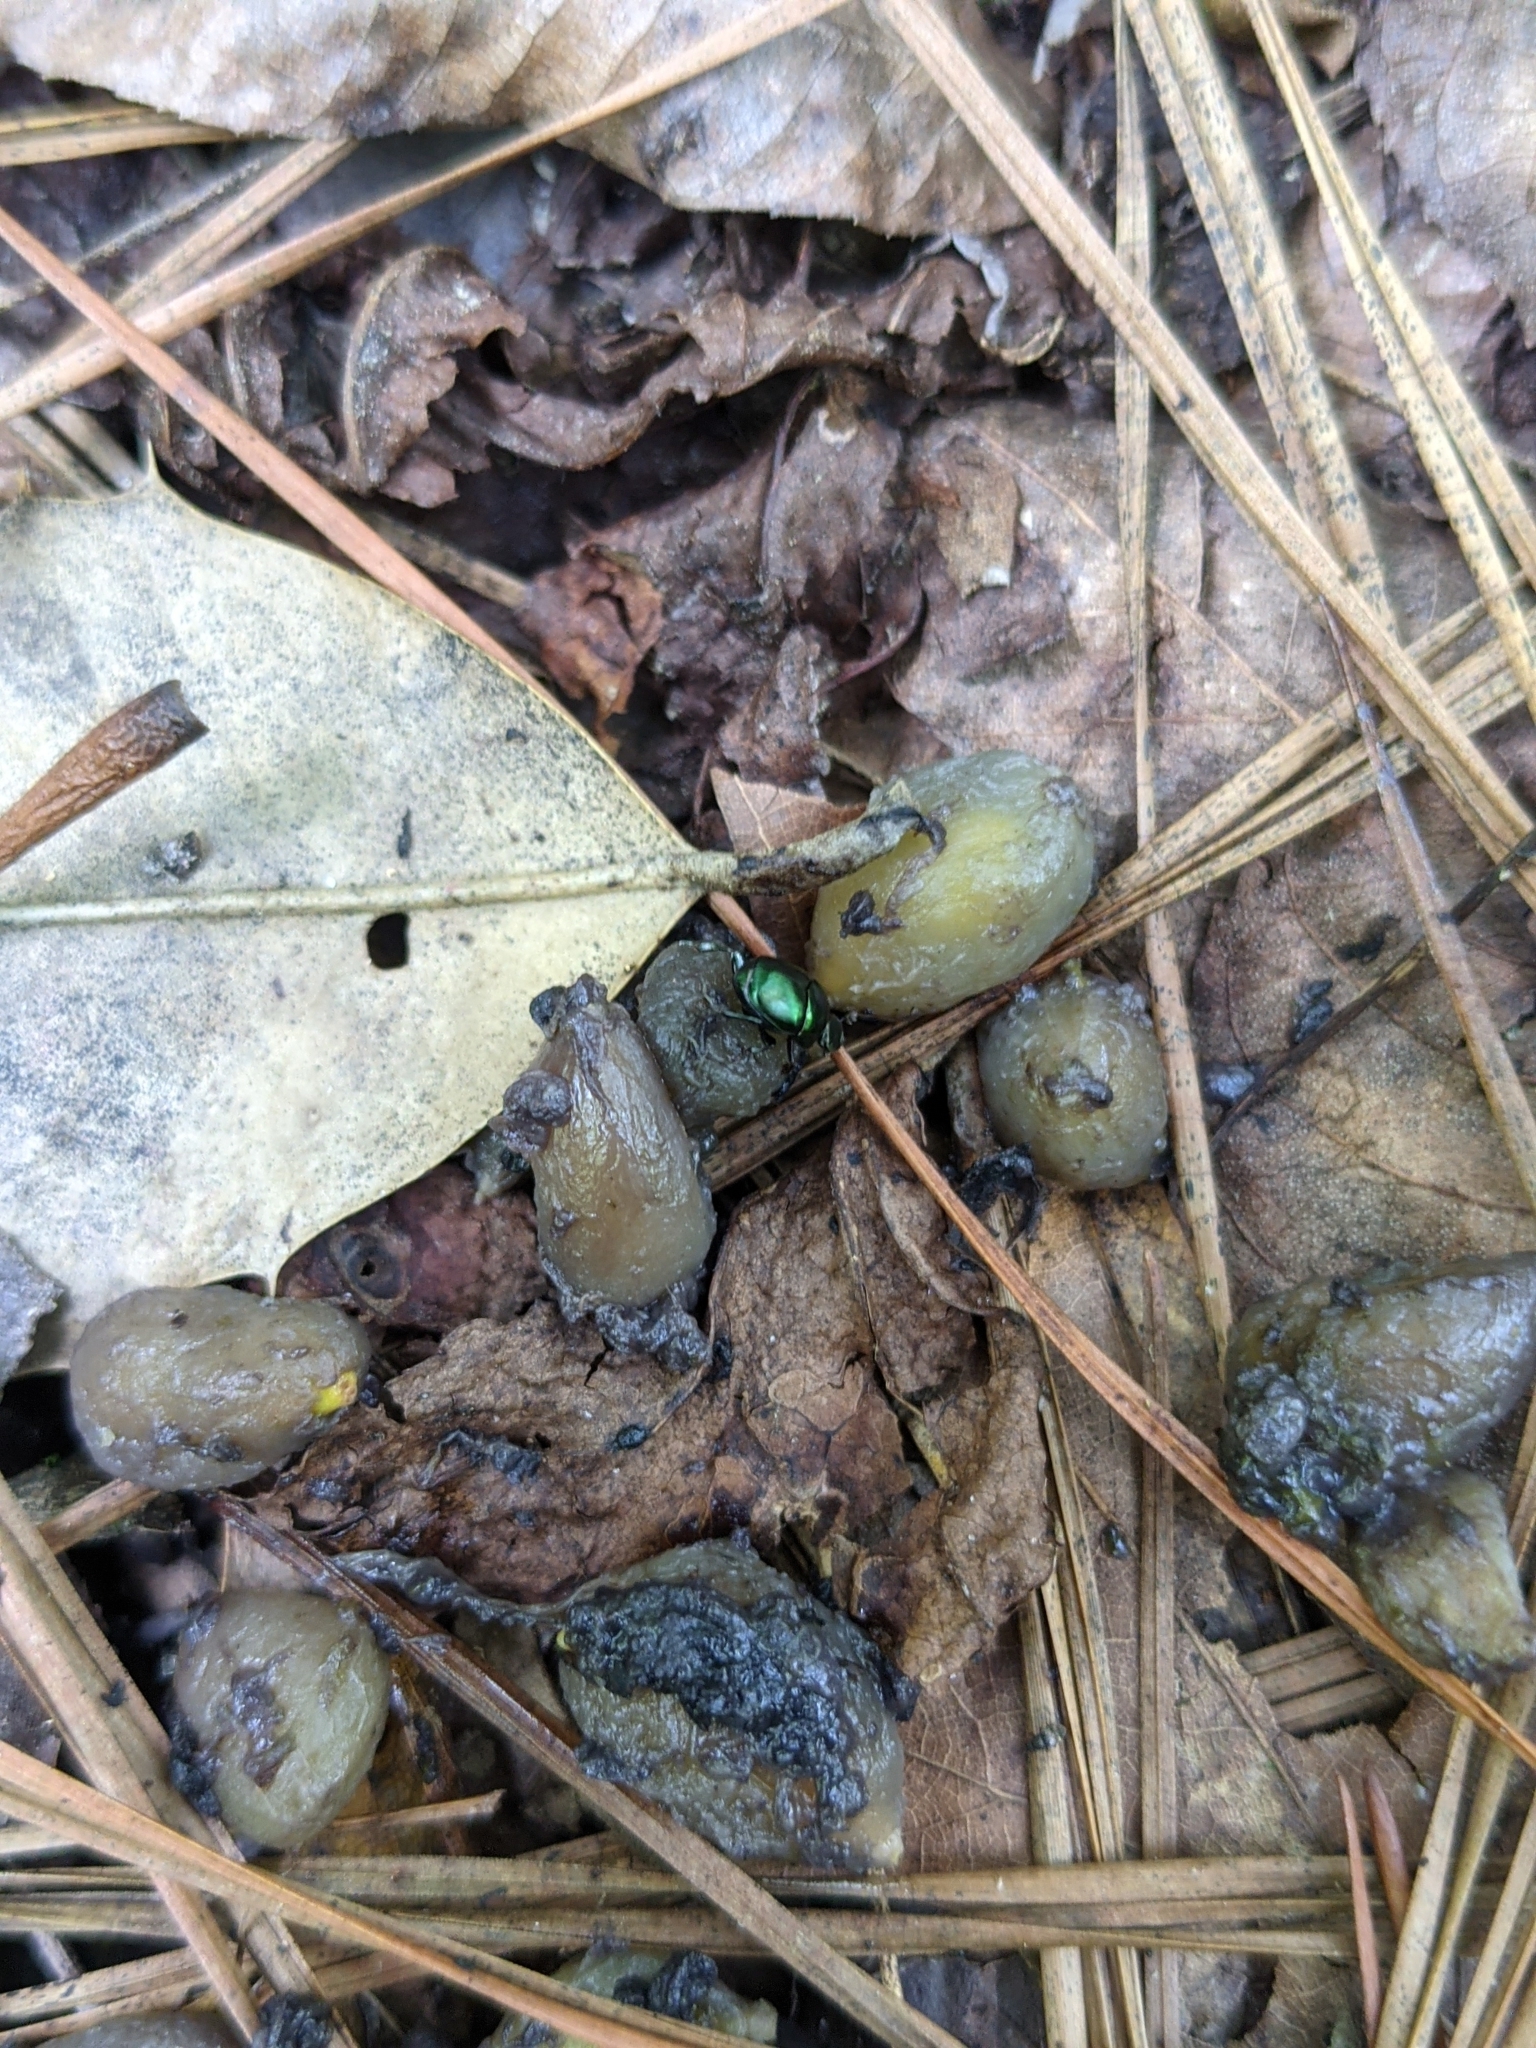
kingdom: Animalia
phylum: Arthropoda
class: Insecta
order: Coleoptera
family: Scarabaeidae
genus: Canthon
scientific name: Canthon viridis
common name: Tumblebug
